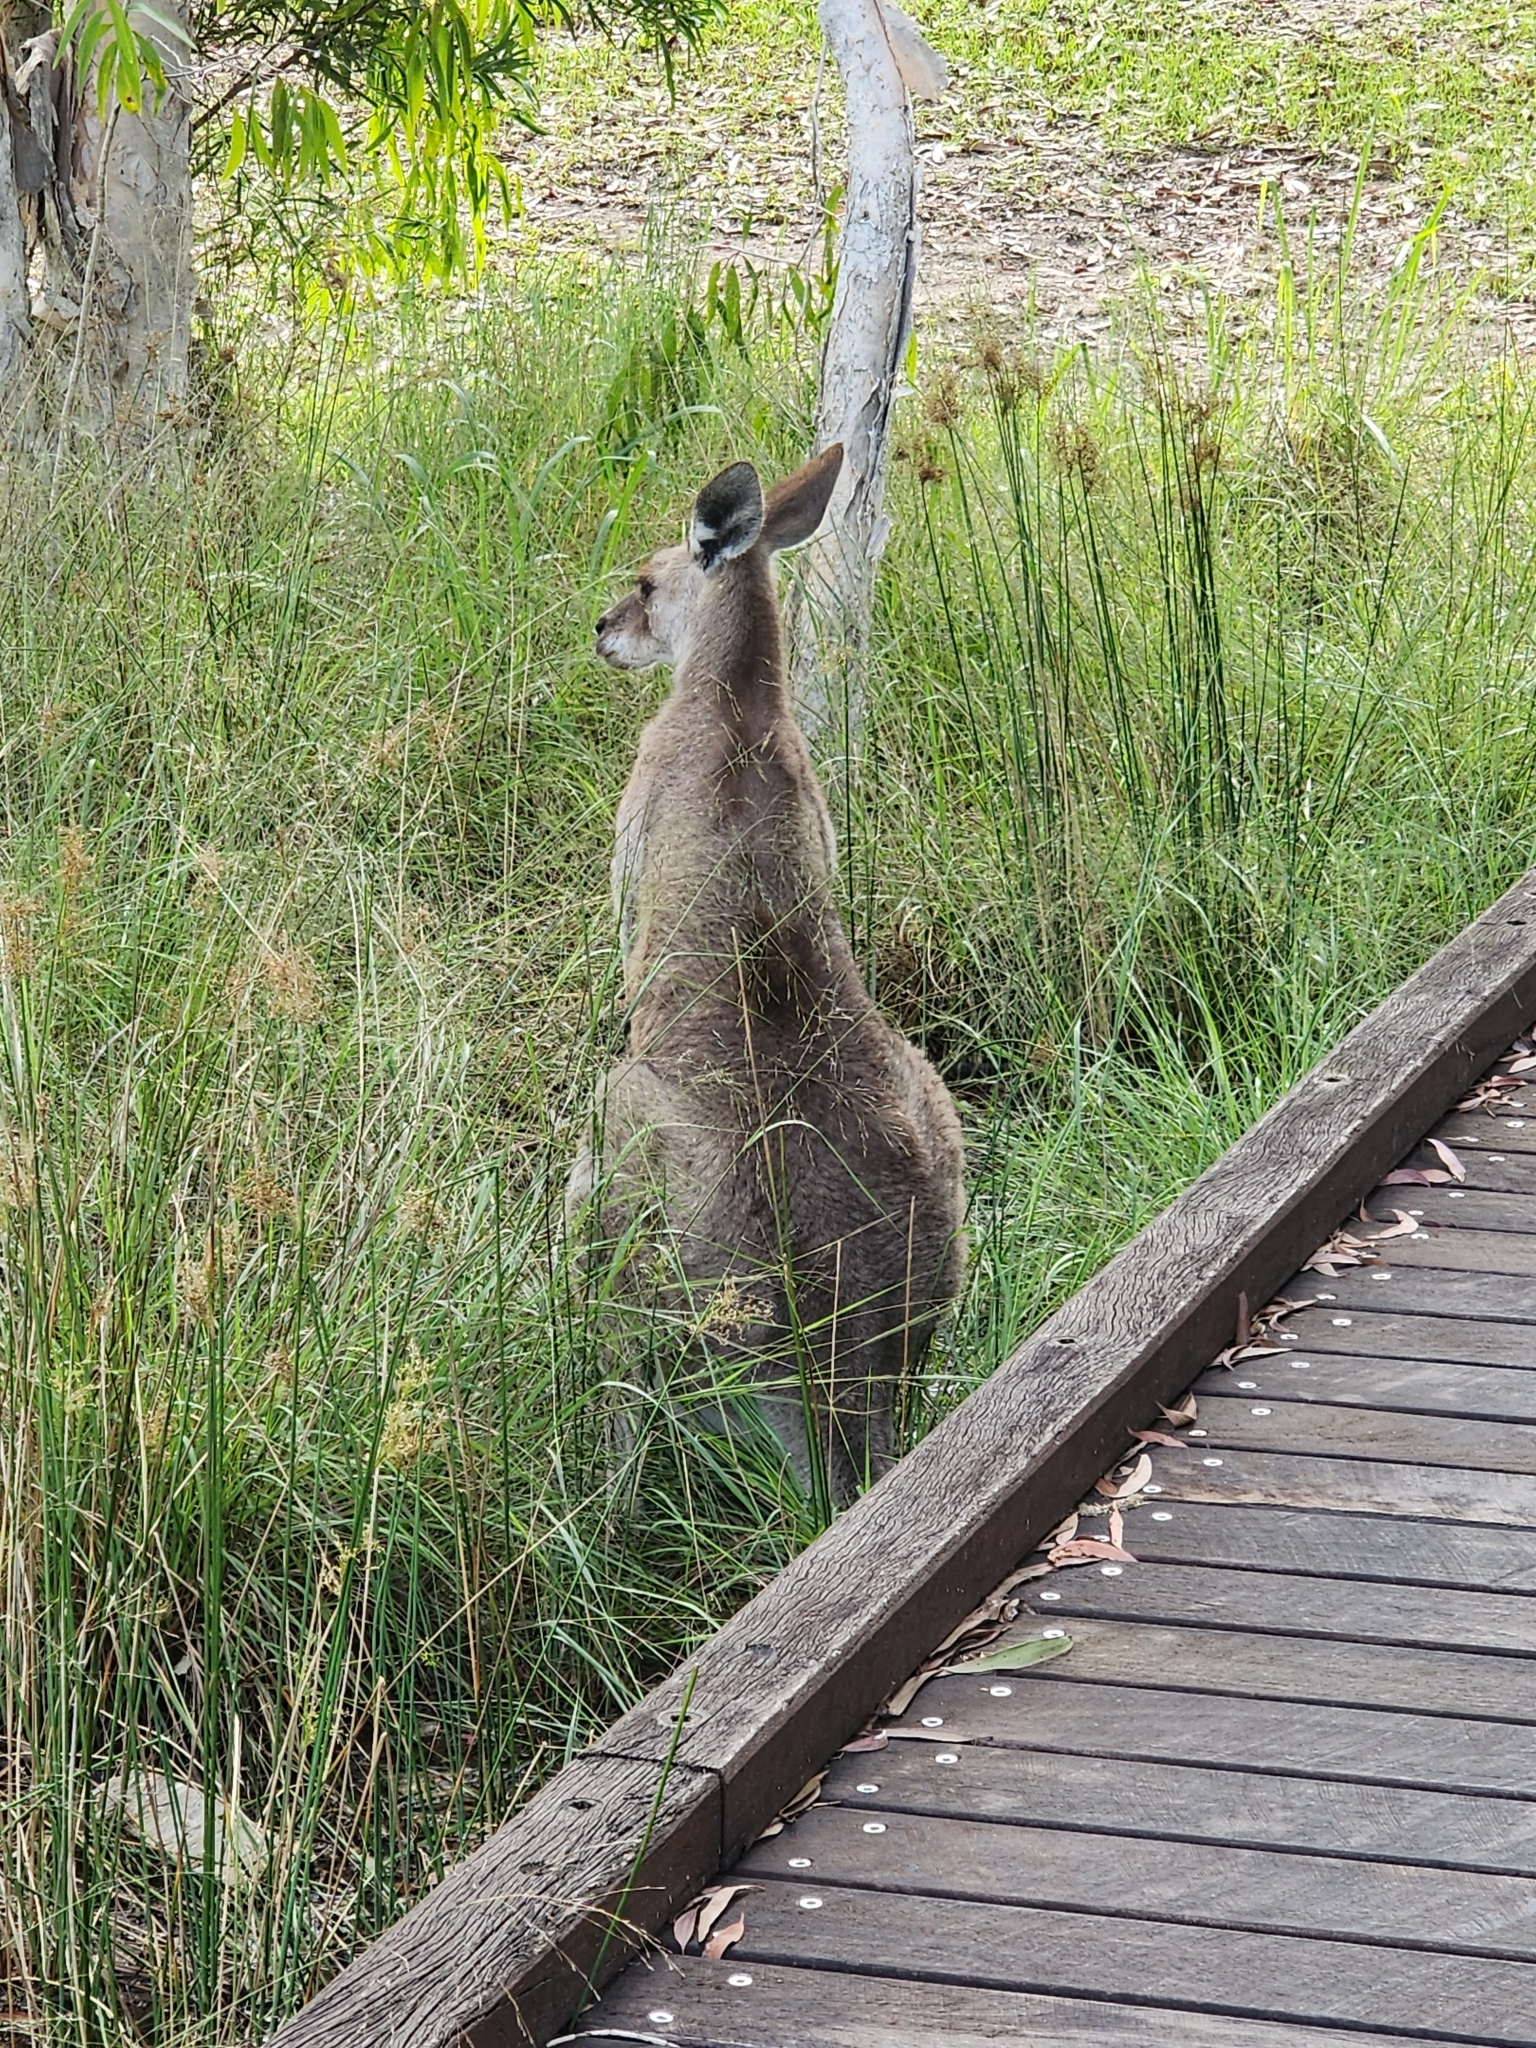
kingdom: Animalia
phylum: Chordata
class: Mammalia
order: Diprotodontia
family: Macropodidae
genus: Macropus
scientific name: Macropus giganteus
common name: Eastern grey kangaroo
